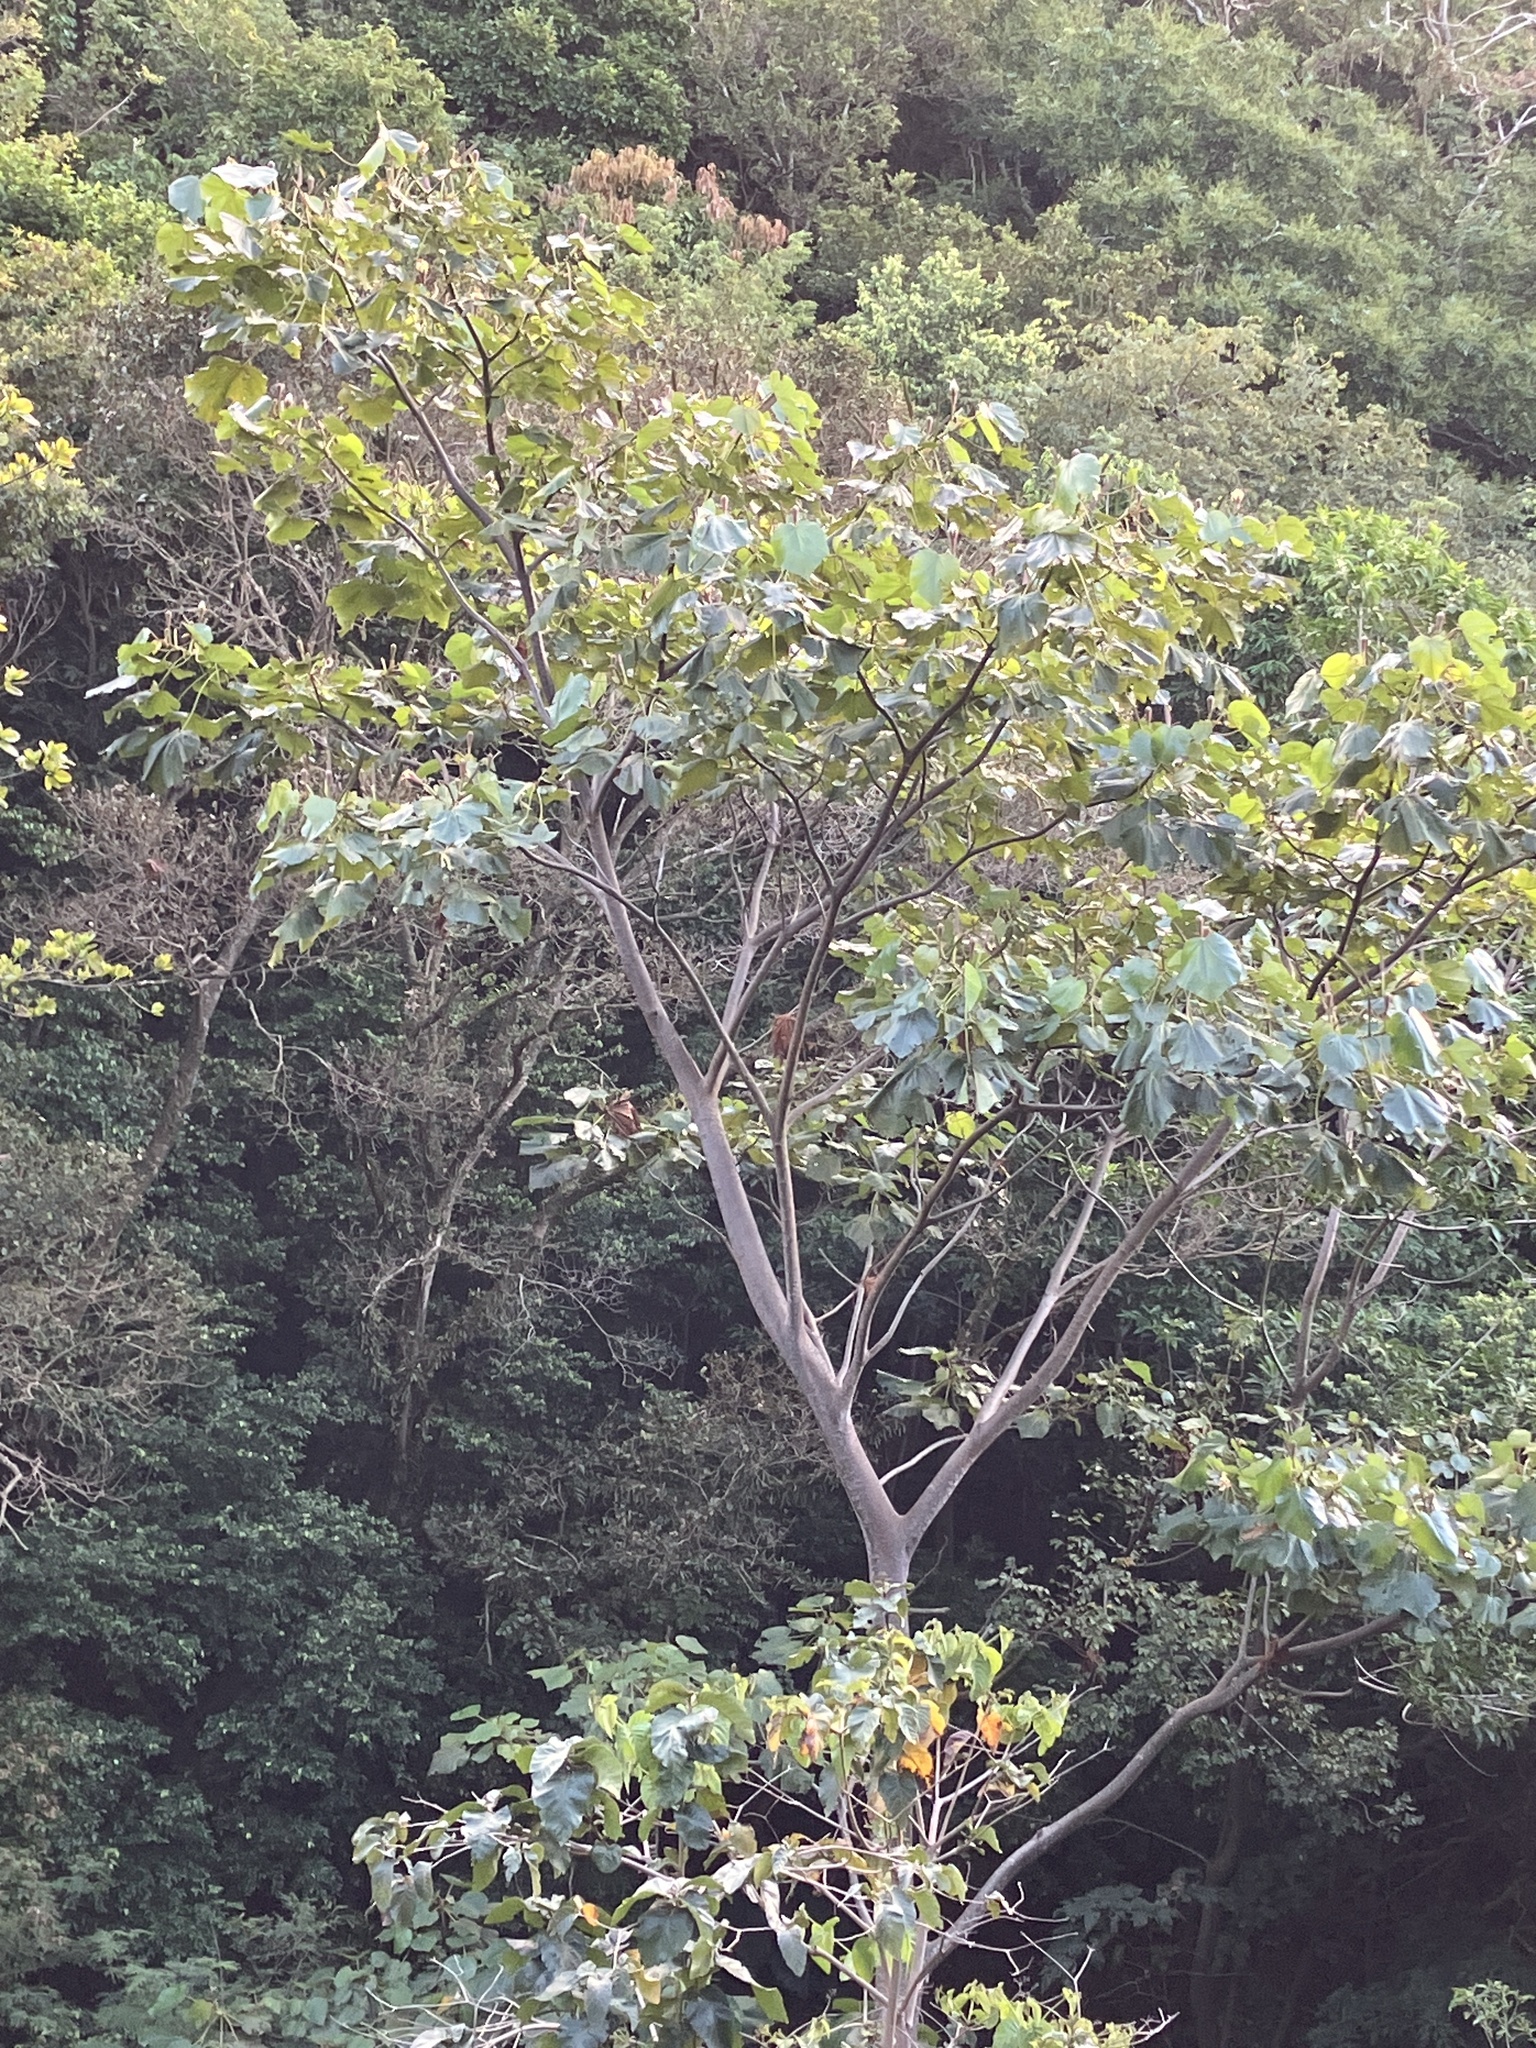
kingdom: Plantae
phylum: Tracheophyta
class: Magnoliopsida
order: Malvales
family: Malvaceae
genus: Ochroma
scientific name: Ochroma pyramidale
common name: Balsa
